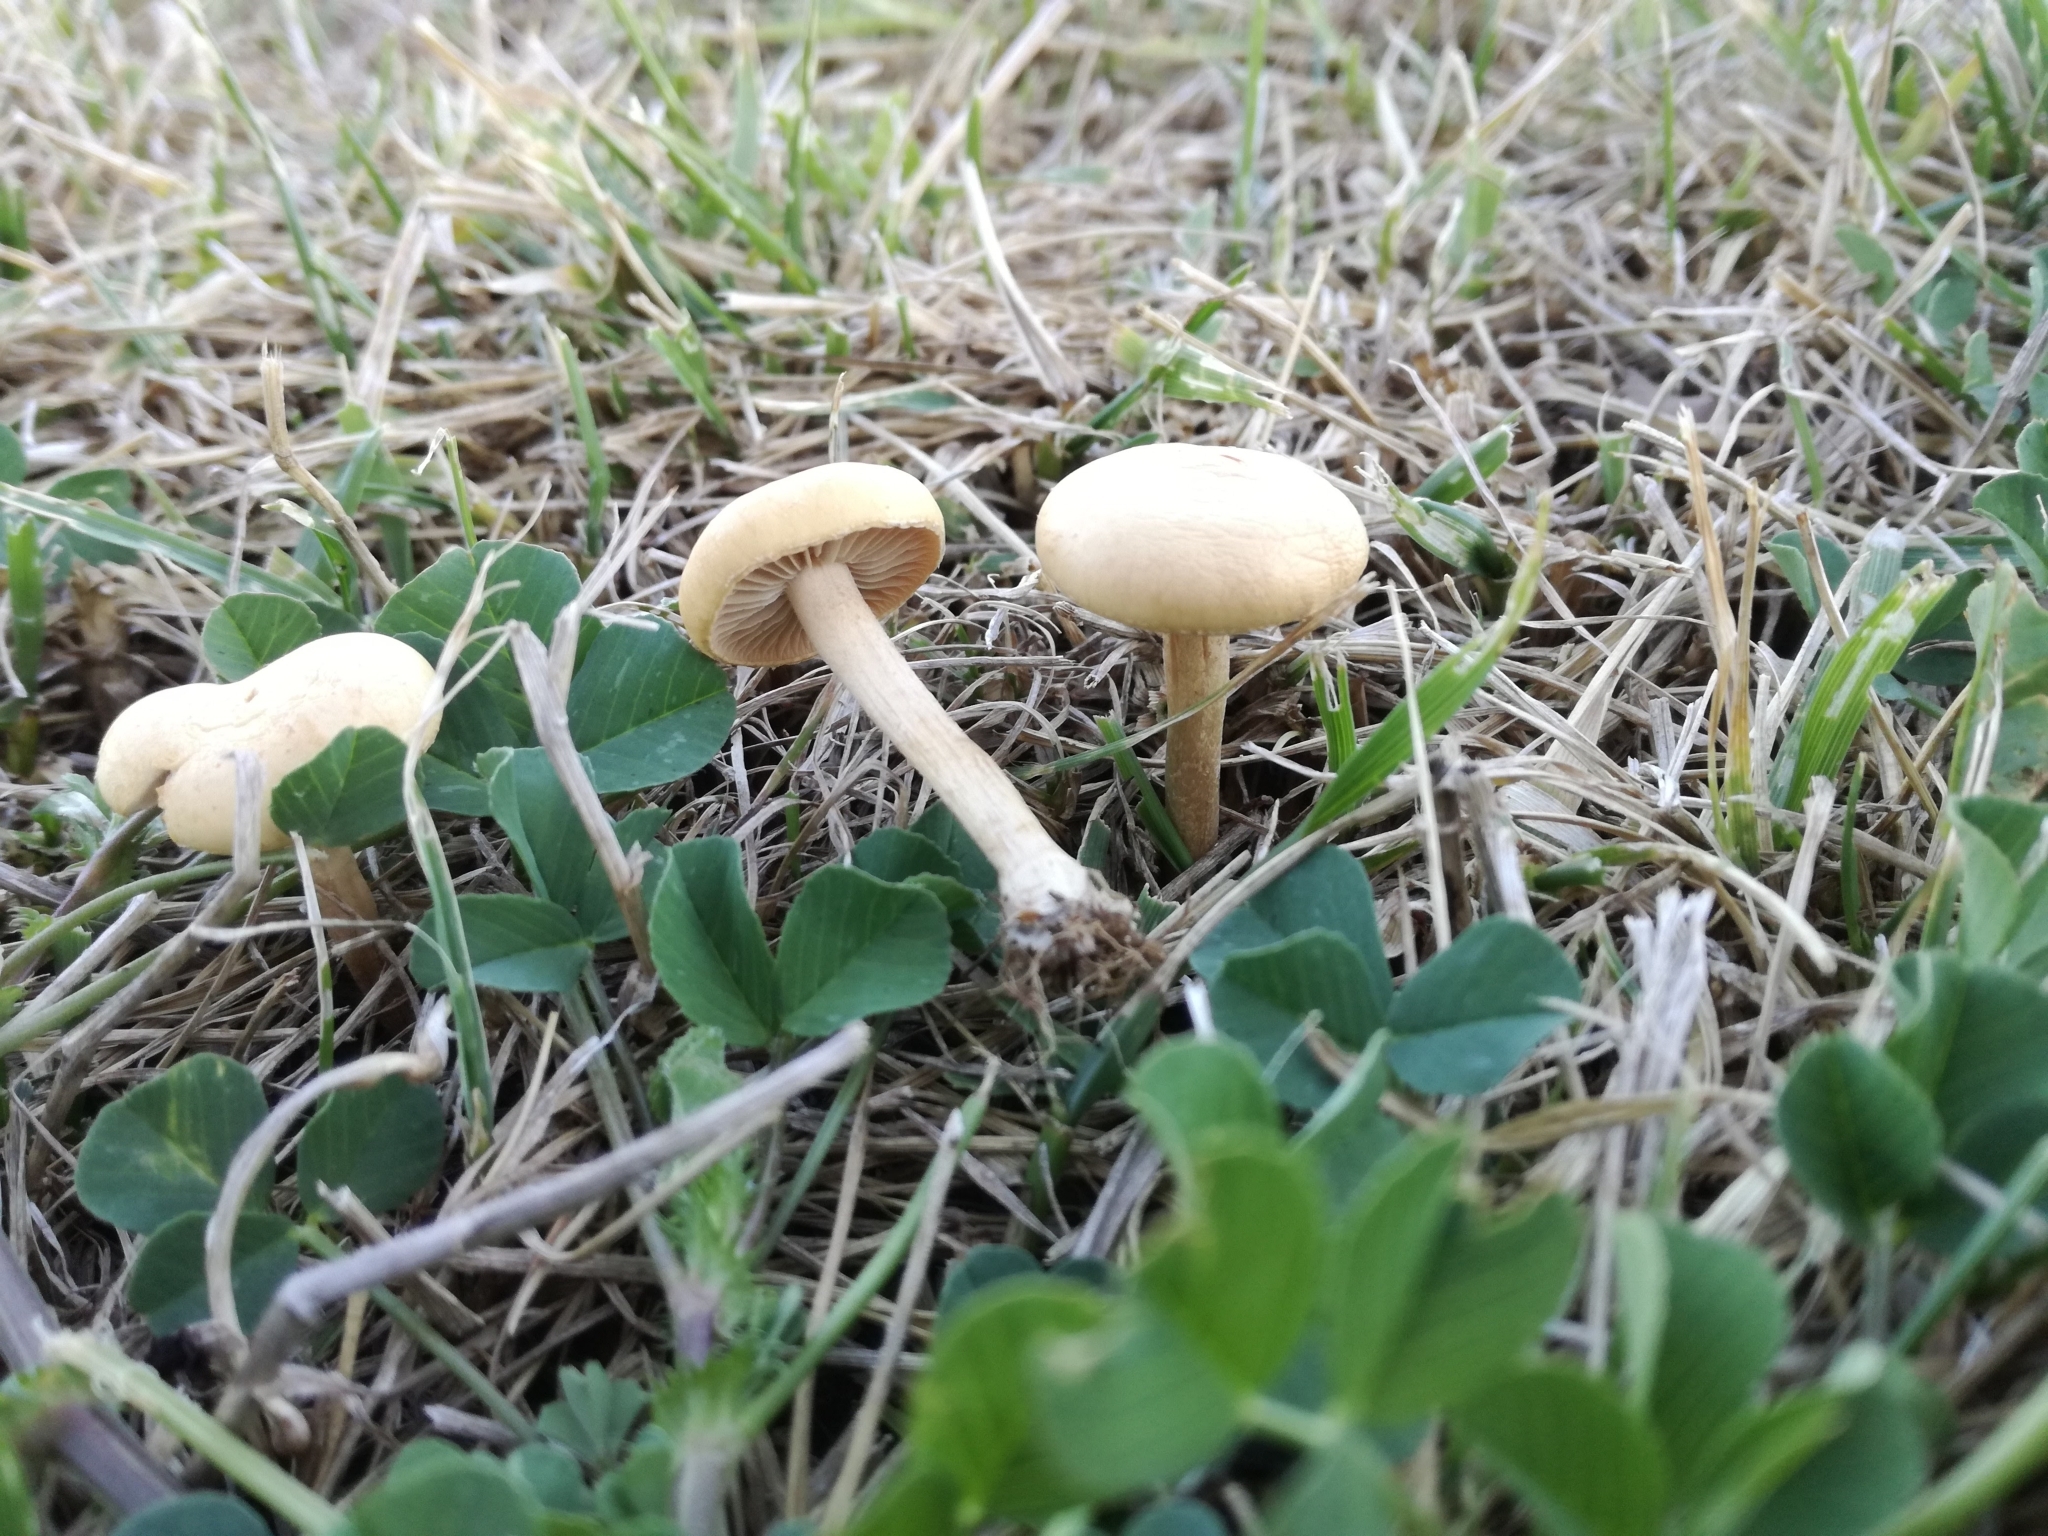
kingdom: Fungi
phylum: Basidiomycota
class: Agaricomycetes
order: Agaricales
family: Strophariaceae
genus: Agrocybe
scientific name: Agrocybe pediades
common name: Common fieldcap
